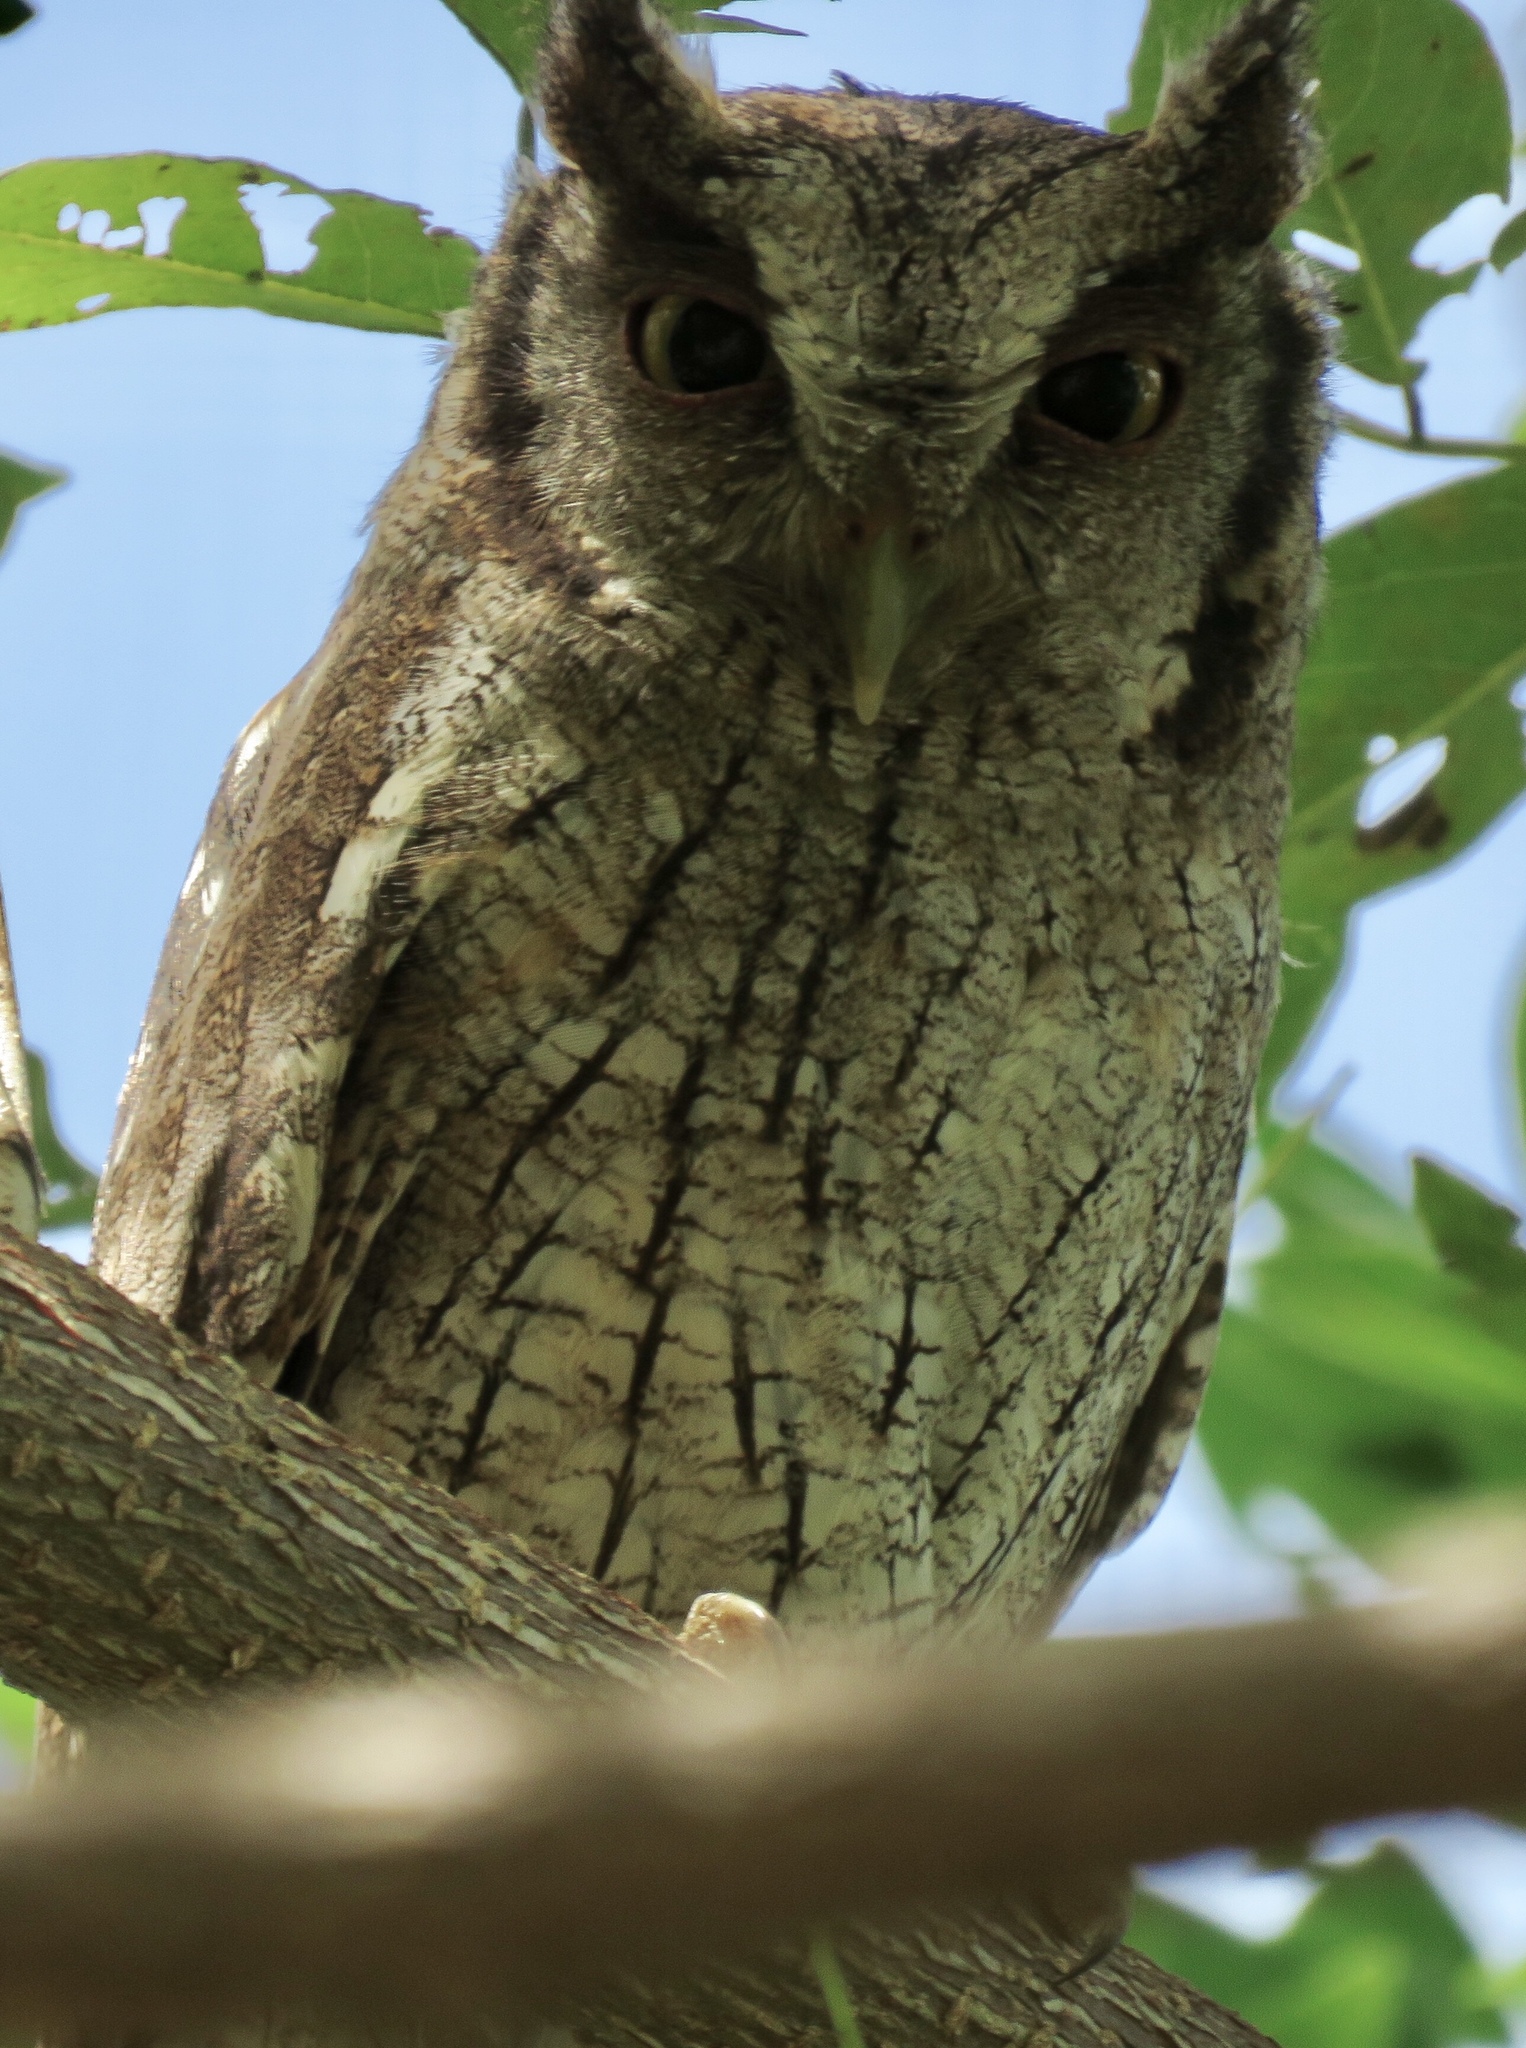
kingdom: Animalia
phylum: Chordata
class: Aves
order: Strigiformes
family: Strigidae
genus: Megascops
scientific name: Megascops choliba
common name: Tropical screech-owl
